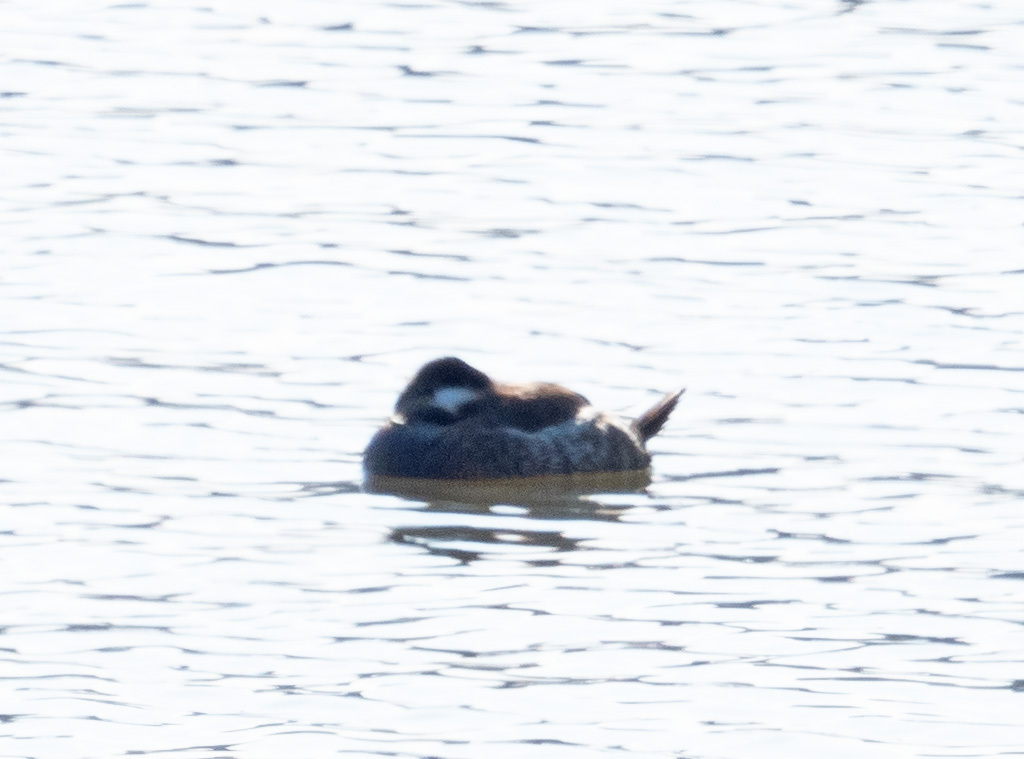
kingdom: Animalia
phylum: Chordata
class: Aves
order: Anseriformes
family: Anatidae
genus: Oxyura
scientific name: Oxyura jamaicensis
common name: Ruddy duck
